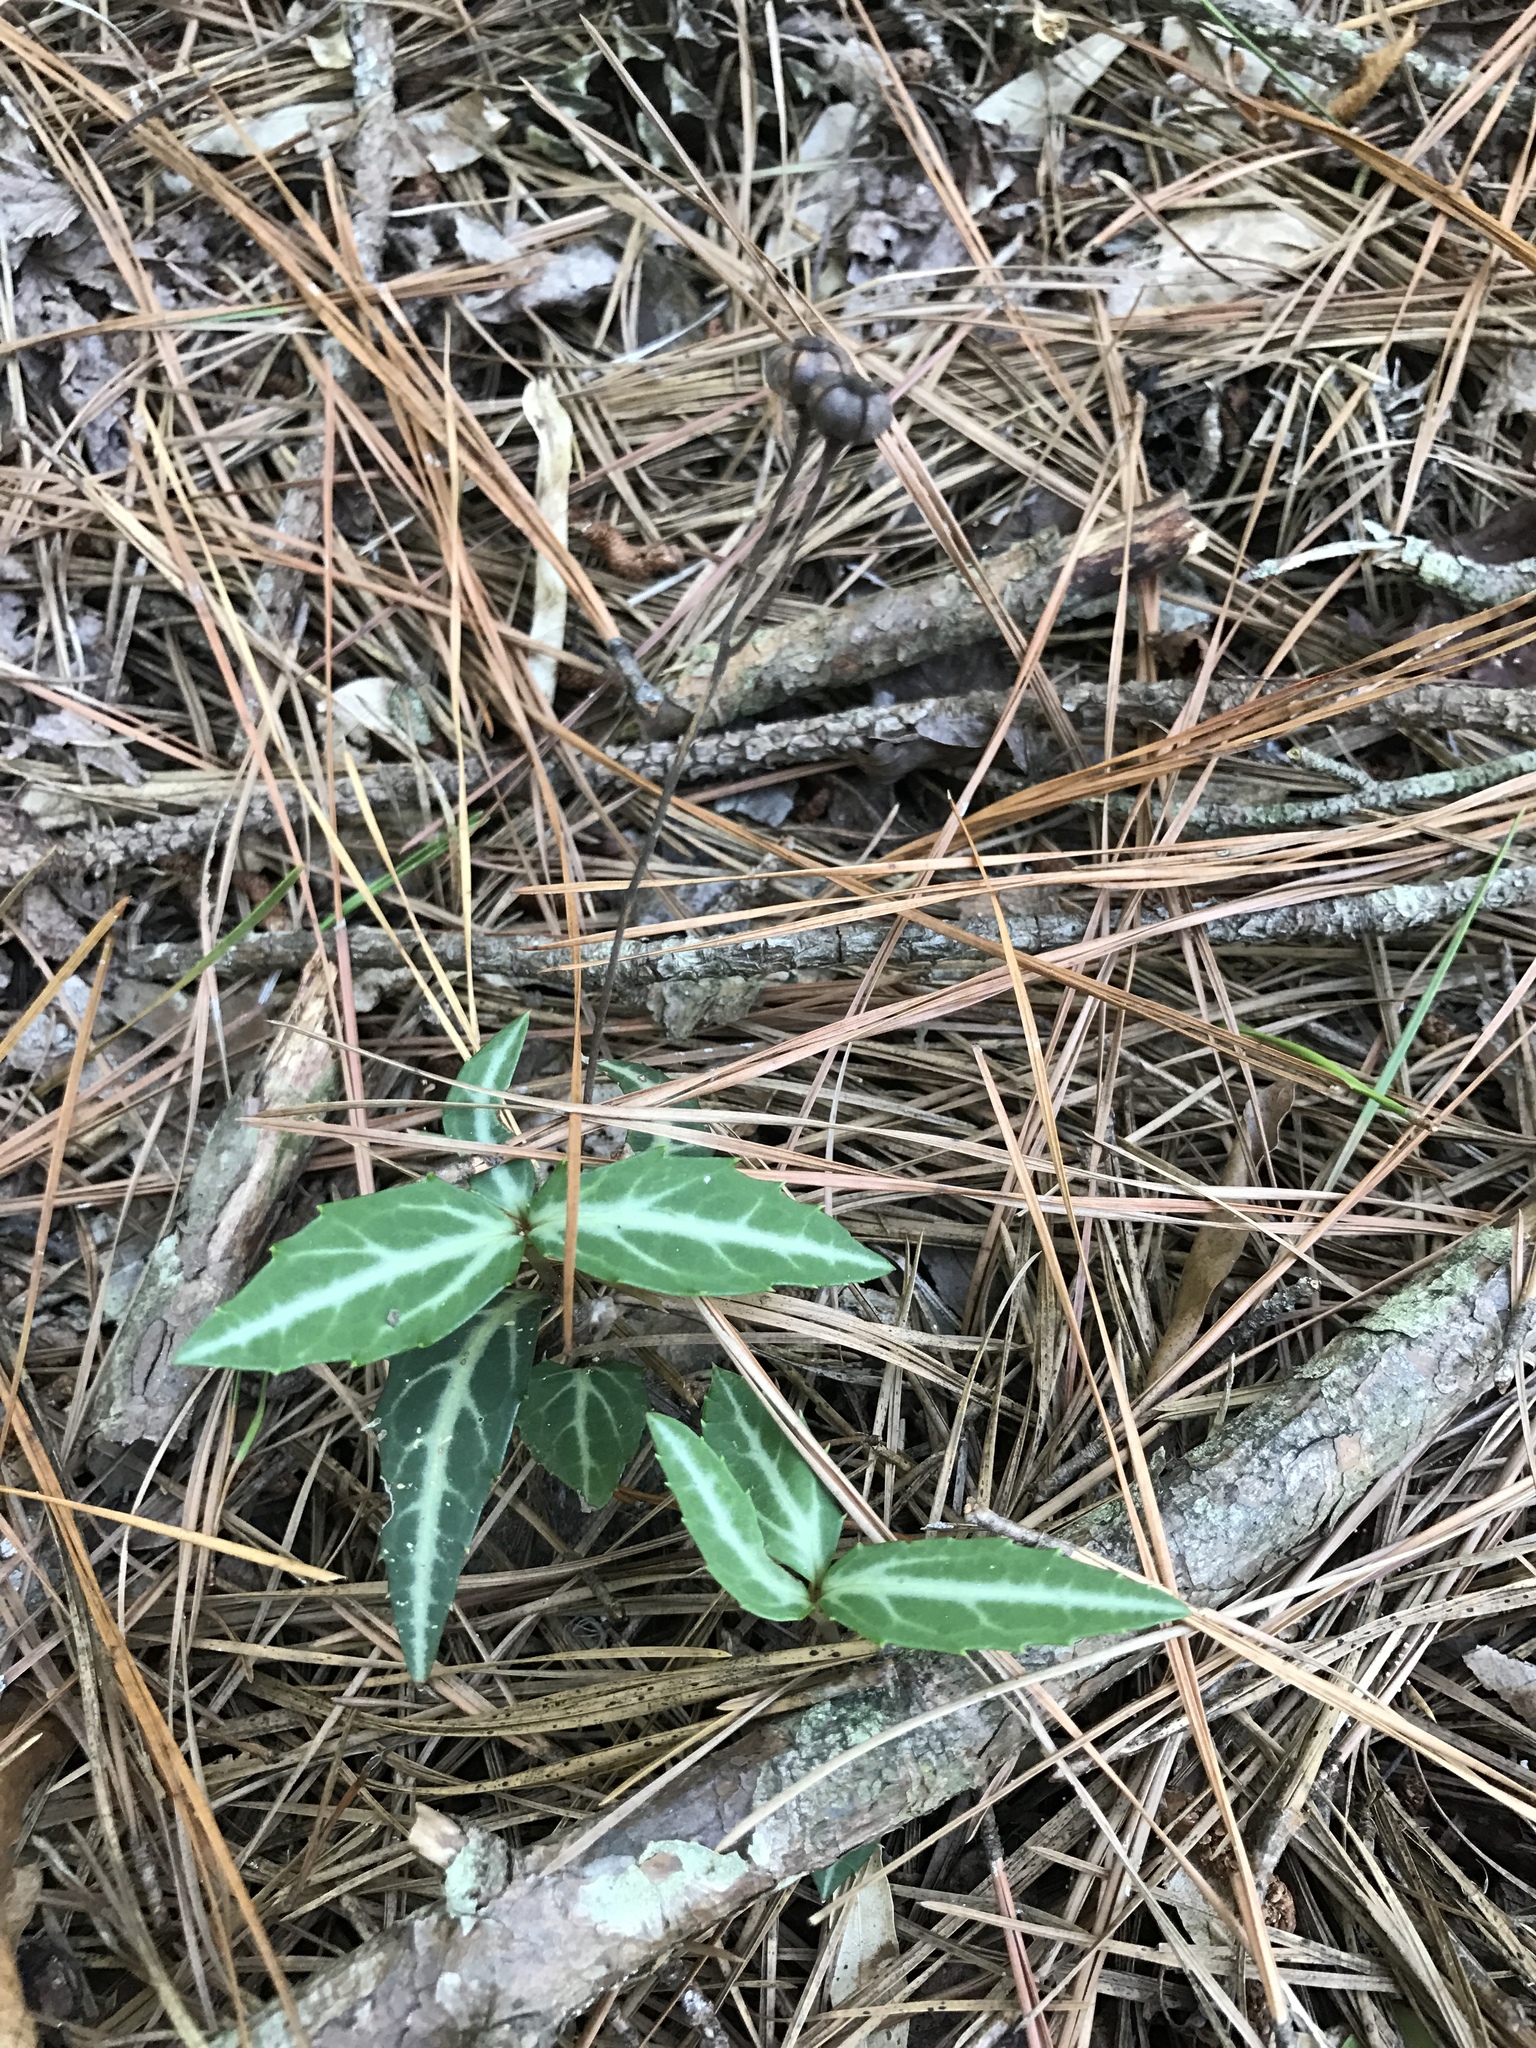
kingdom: Plantae
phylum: Tracheophyta
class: Magnoliopsida
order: Ericales
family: Ericaceae
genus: Chimaphila
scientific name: Chimaphila maculata
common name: Spotted pipsissewa
